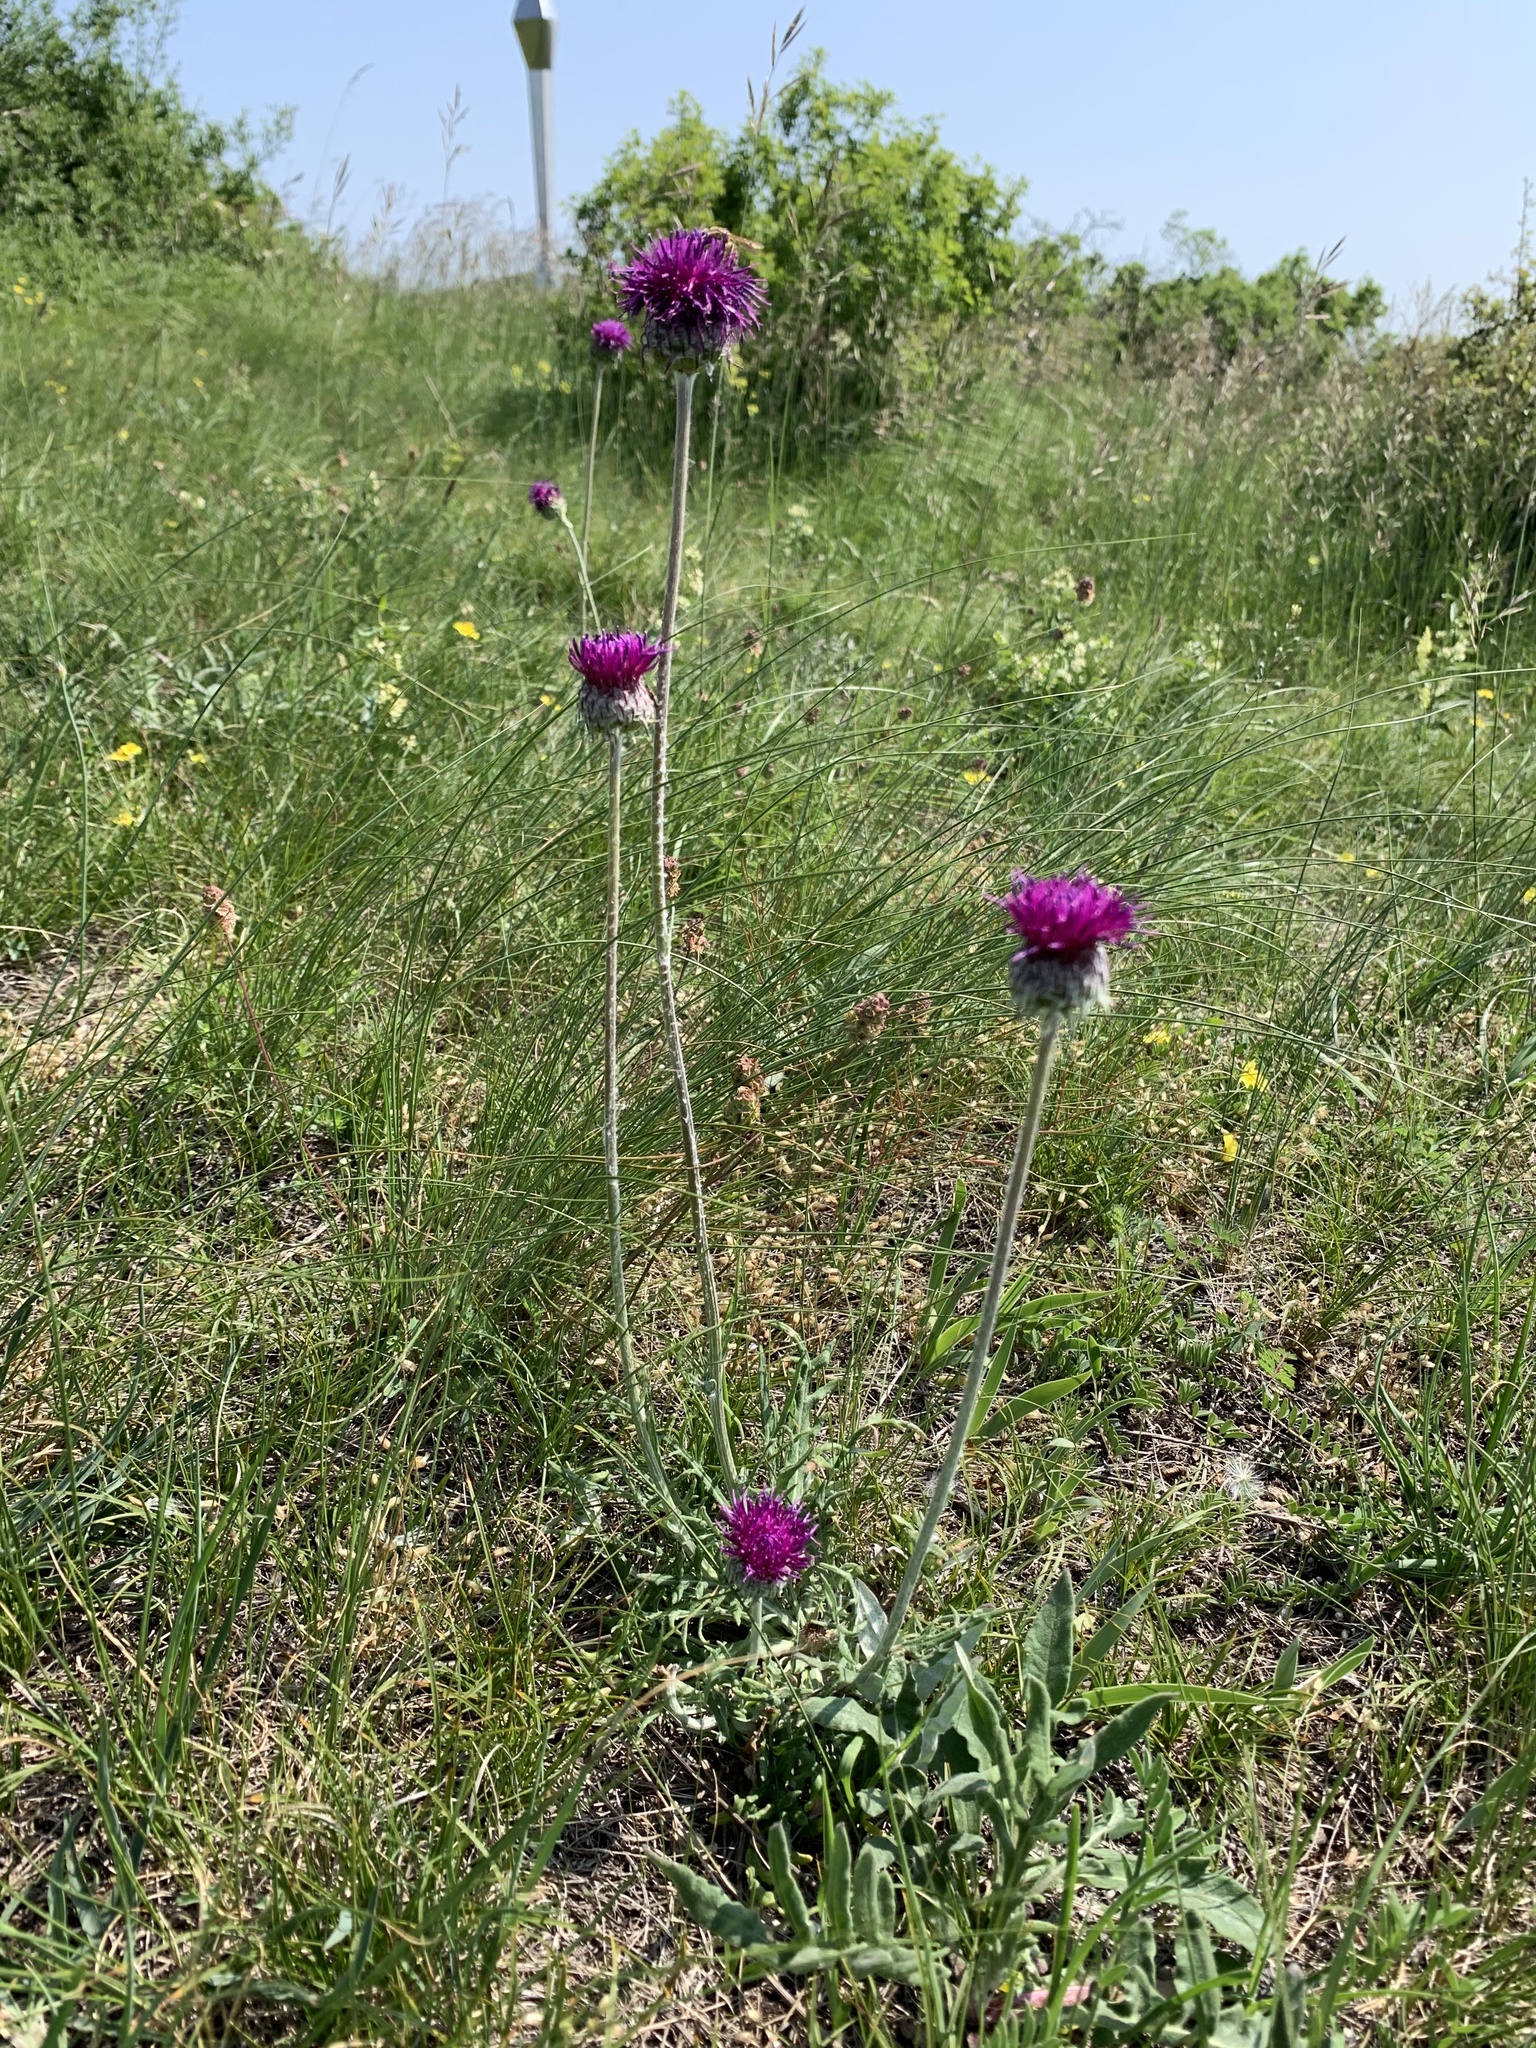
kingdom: Plantae
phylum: Tracheophyta
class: Magnoliopsida
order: Asterales
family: Asteraceae
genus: Jurinea
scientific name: Jurinea mollis
